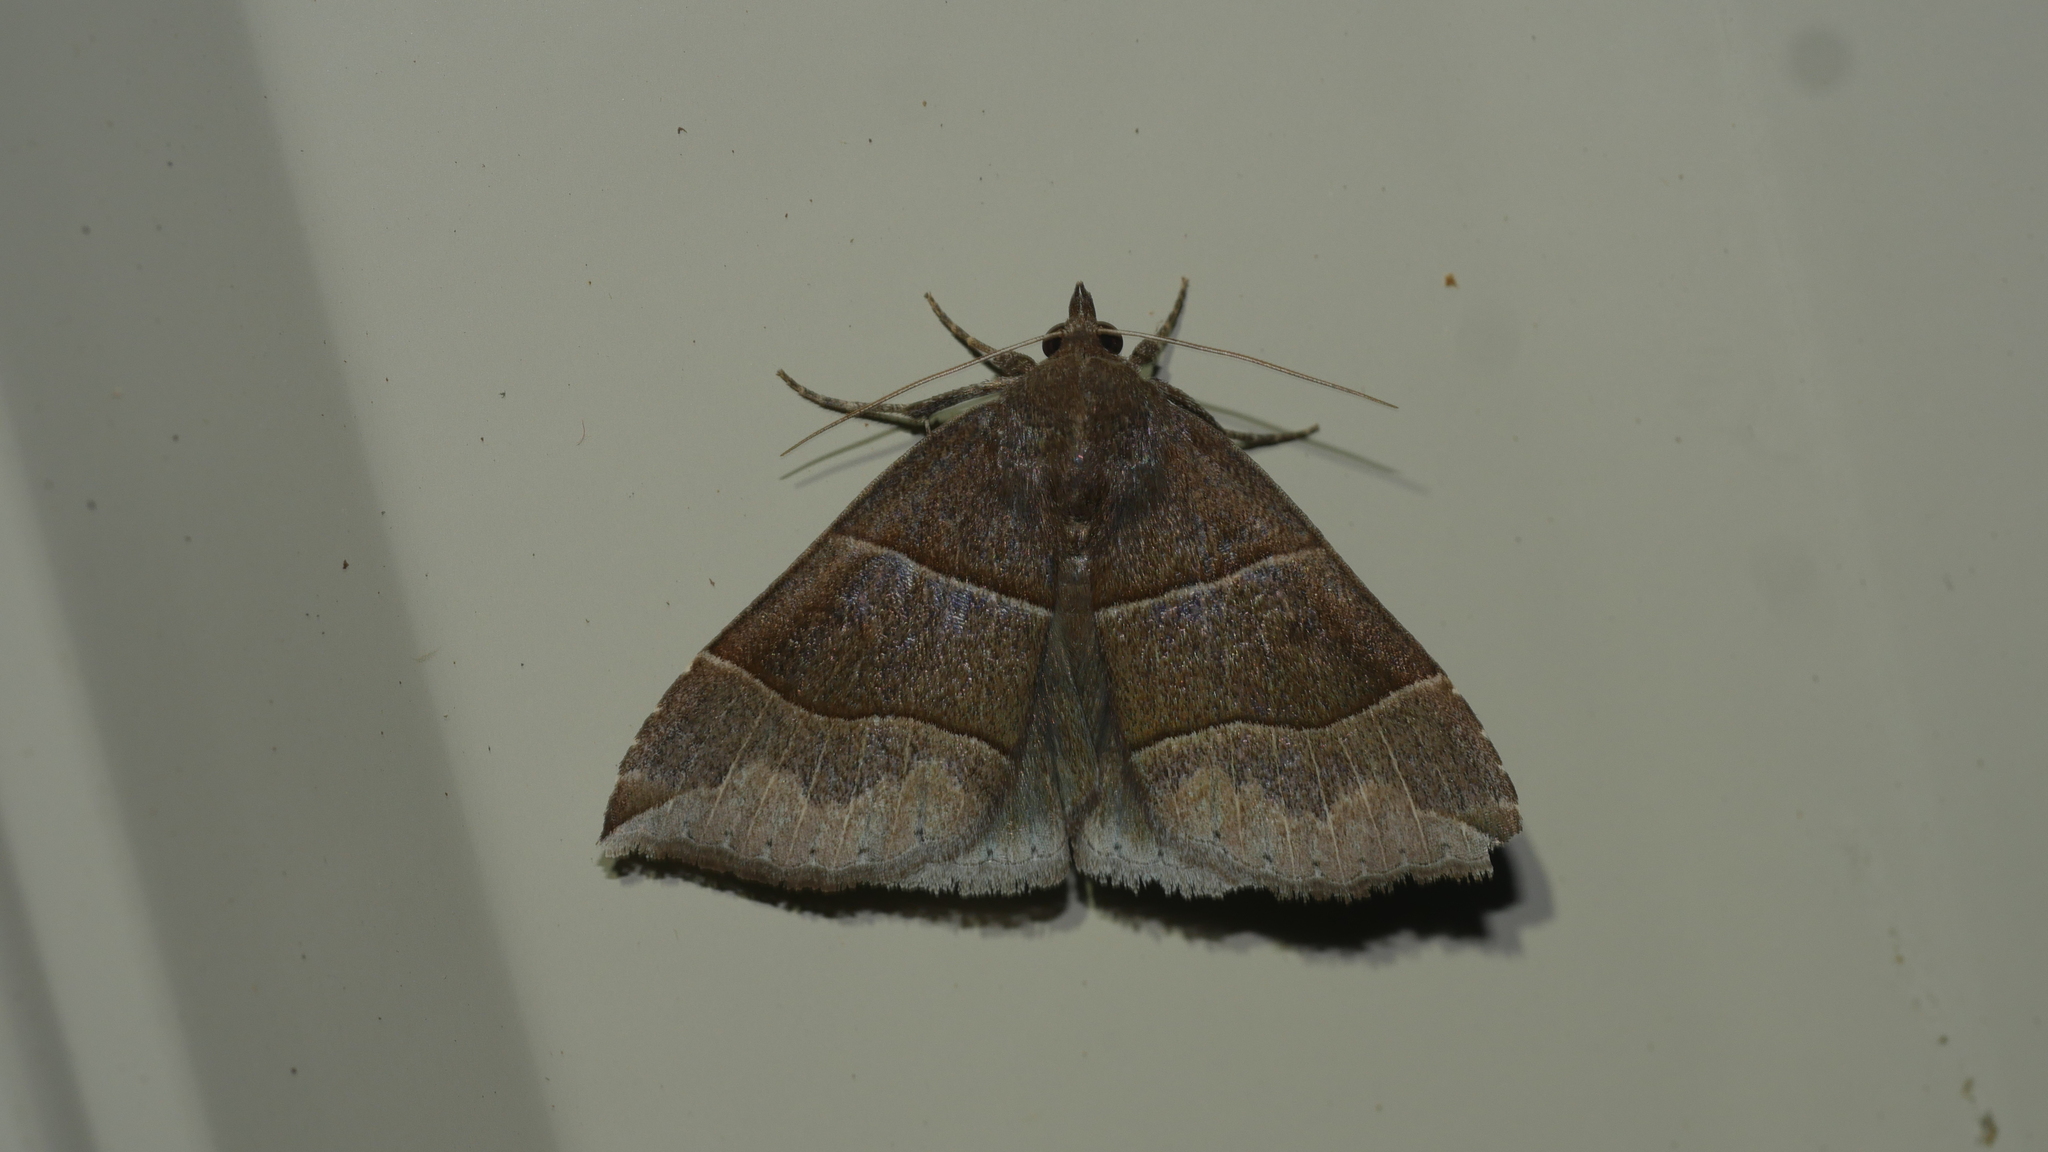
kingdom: Animalia
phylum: Arthropoda
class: Insecta
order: Lepidoptera
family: Erebidae
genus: Parallelia
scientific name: Parallelia bistriaris
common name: Maple looper moth
